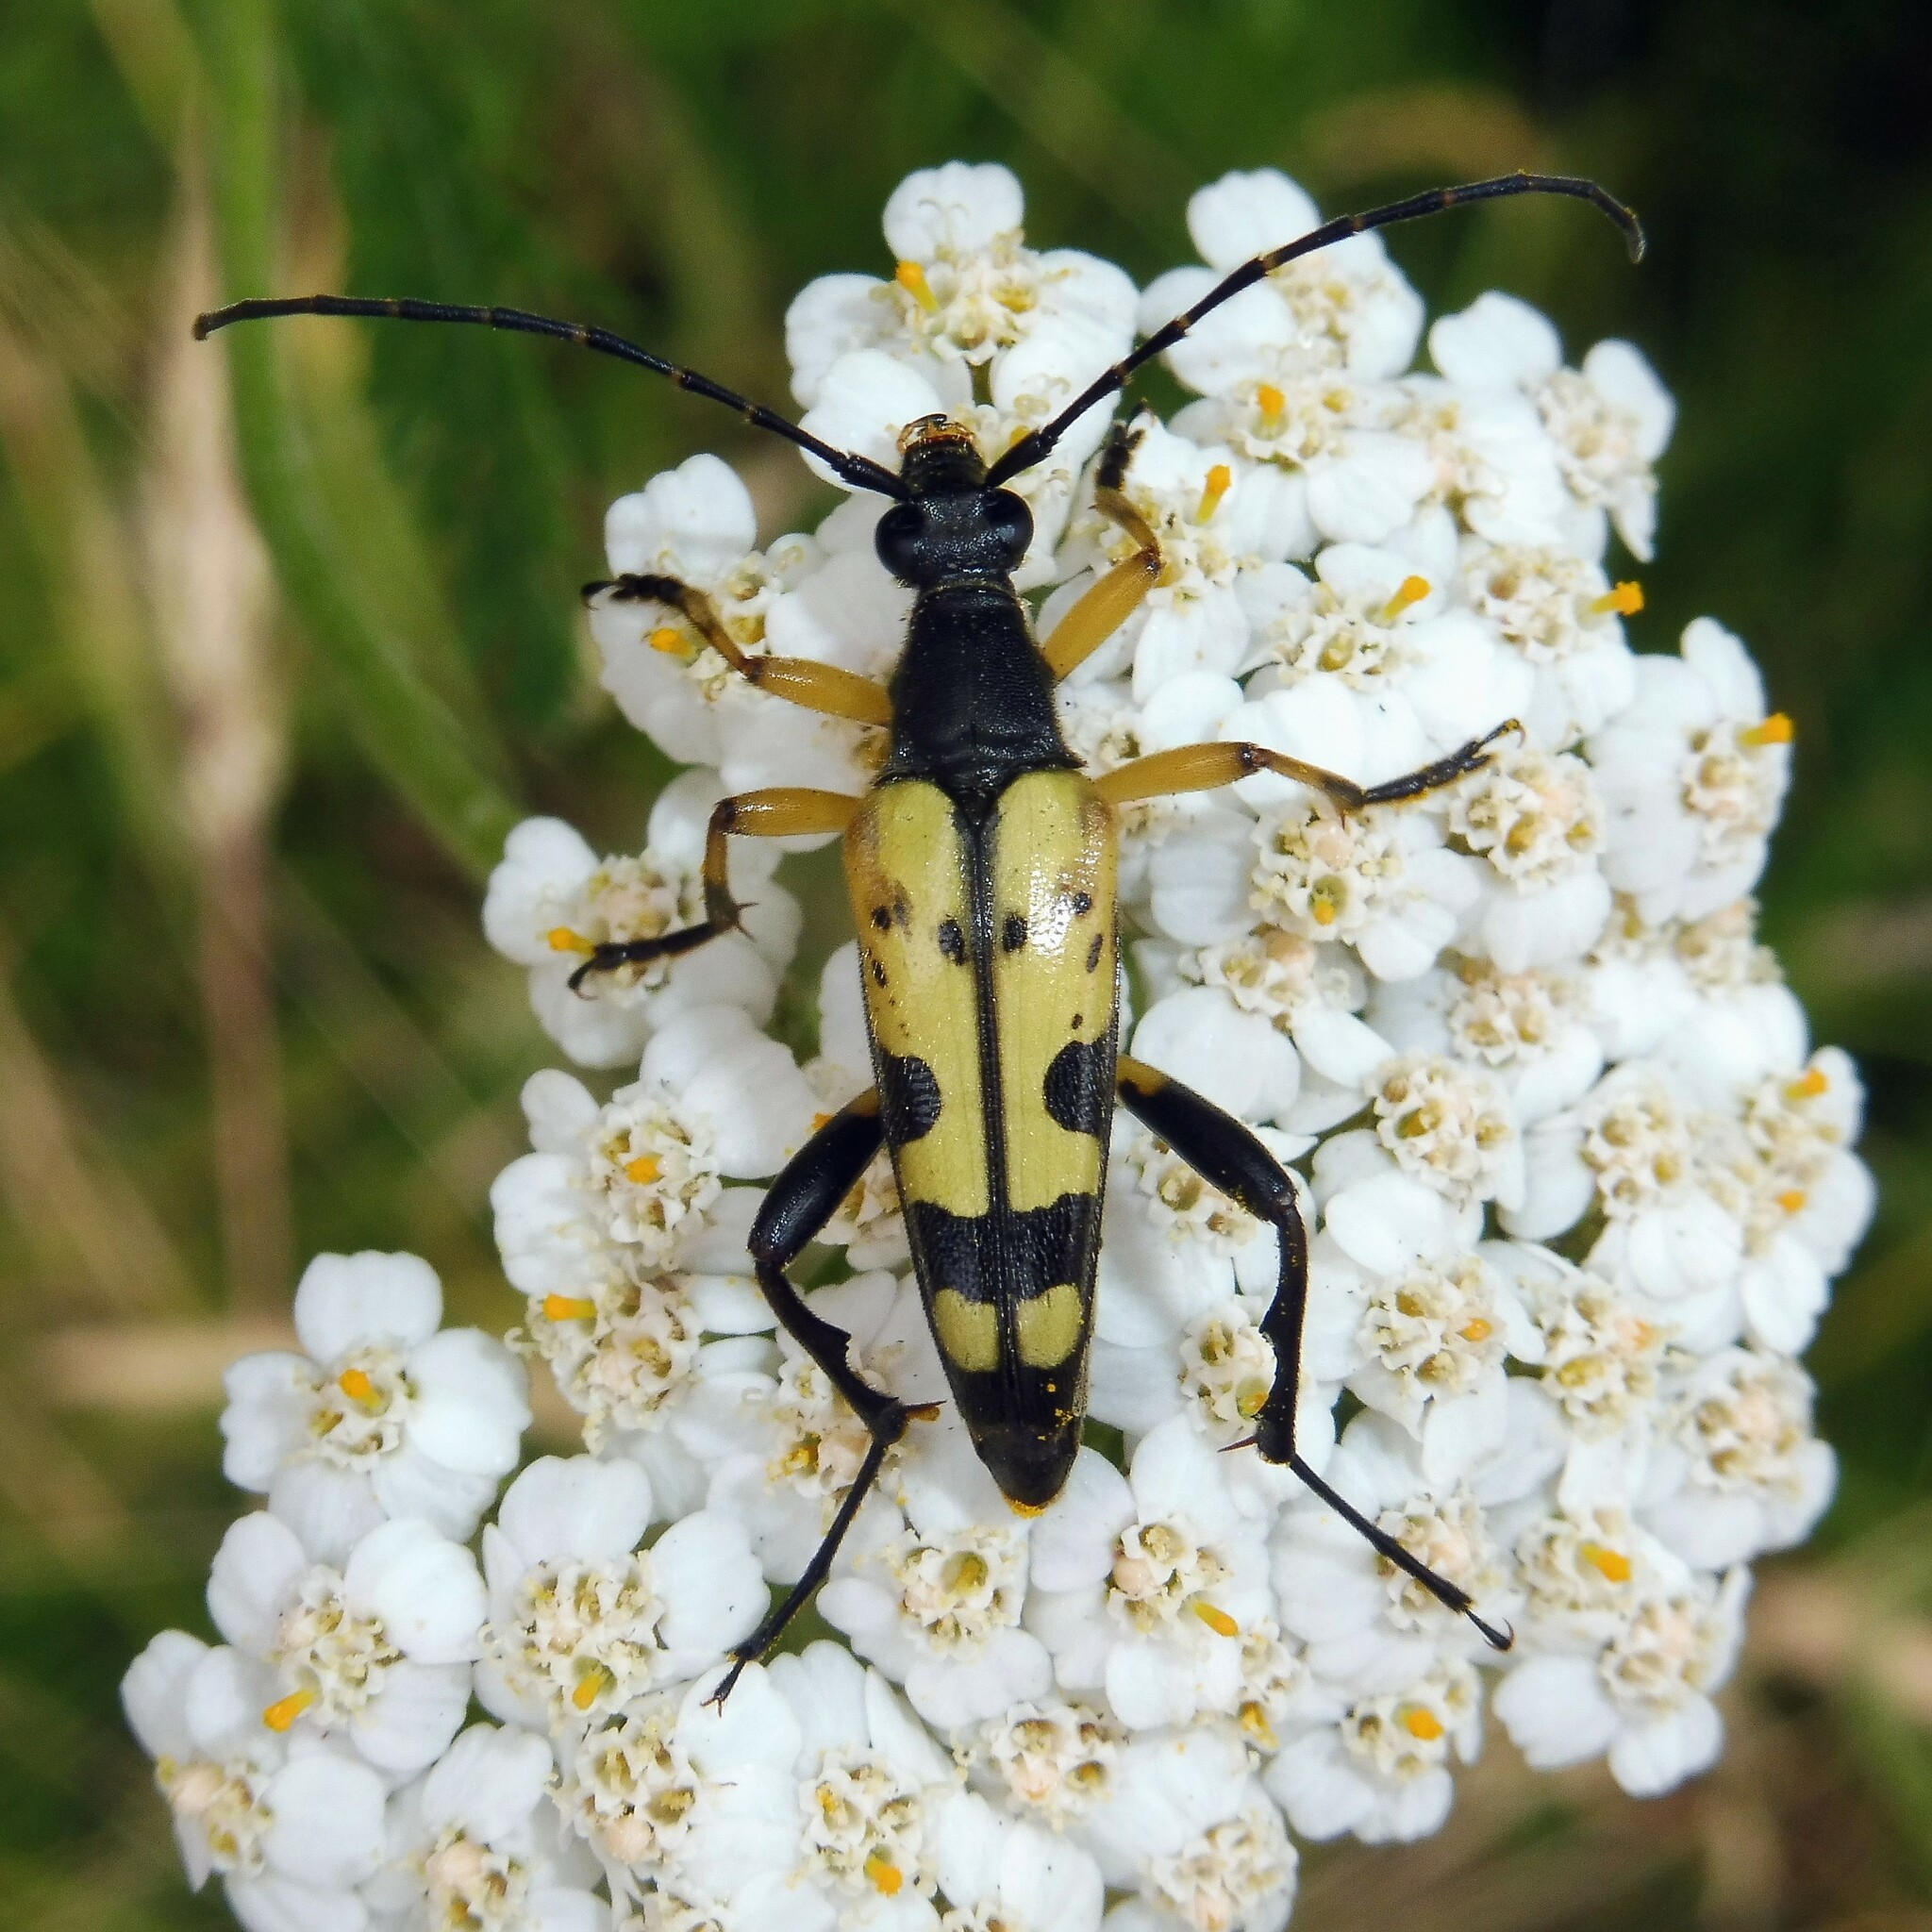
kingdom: Animalia
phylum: Arthropoda
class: Insecta
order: Coleoptera
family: Cerambycidae
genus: Rutpela
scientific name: Rutpela maculata
